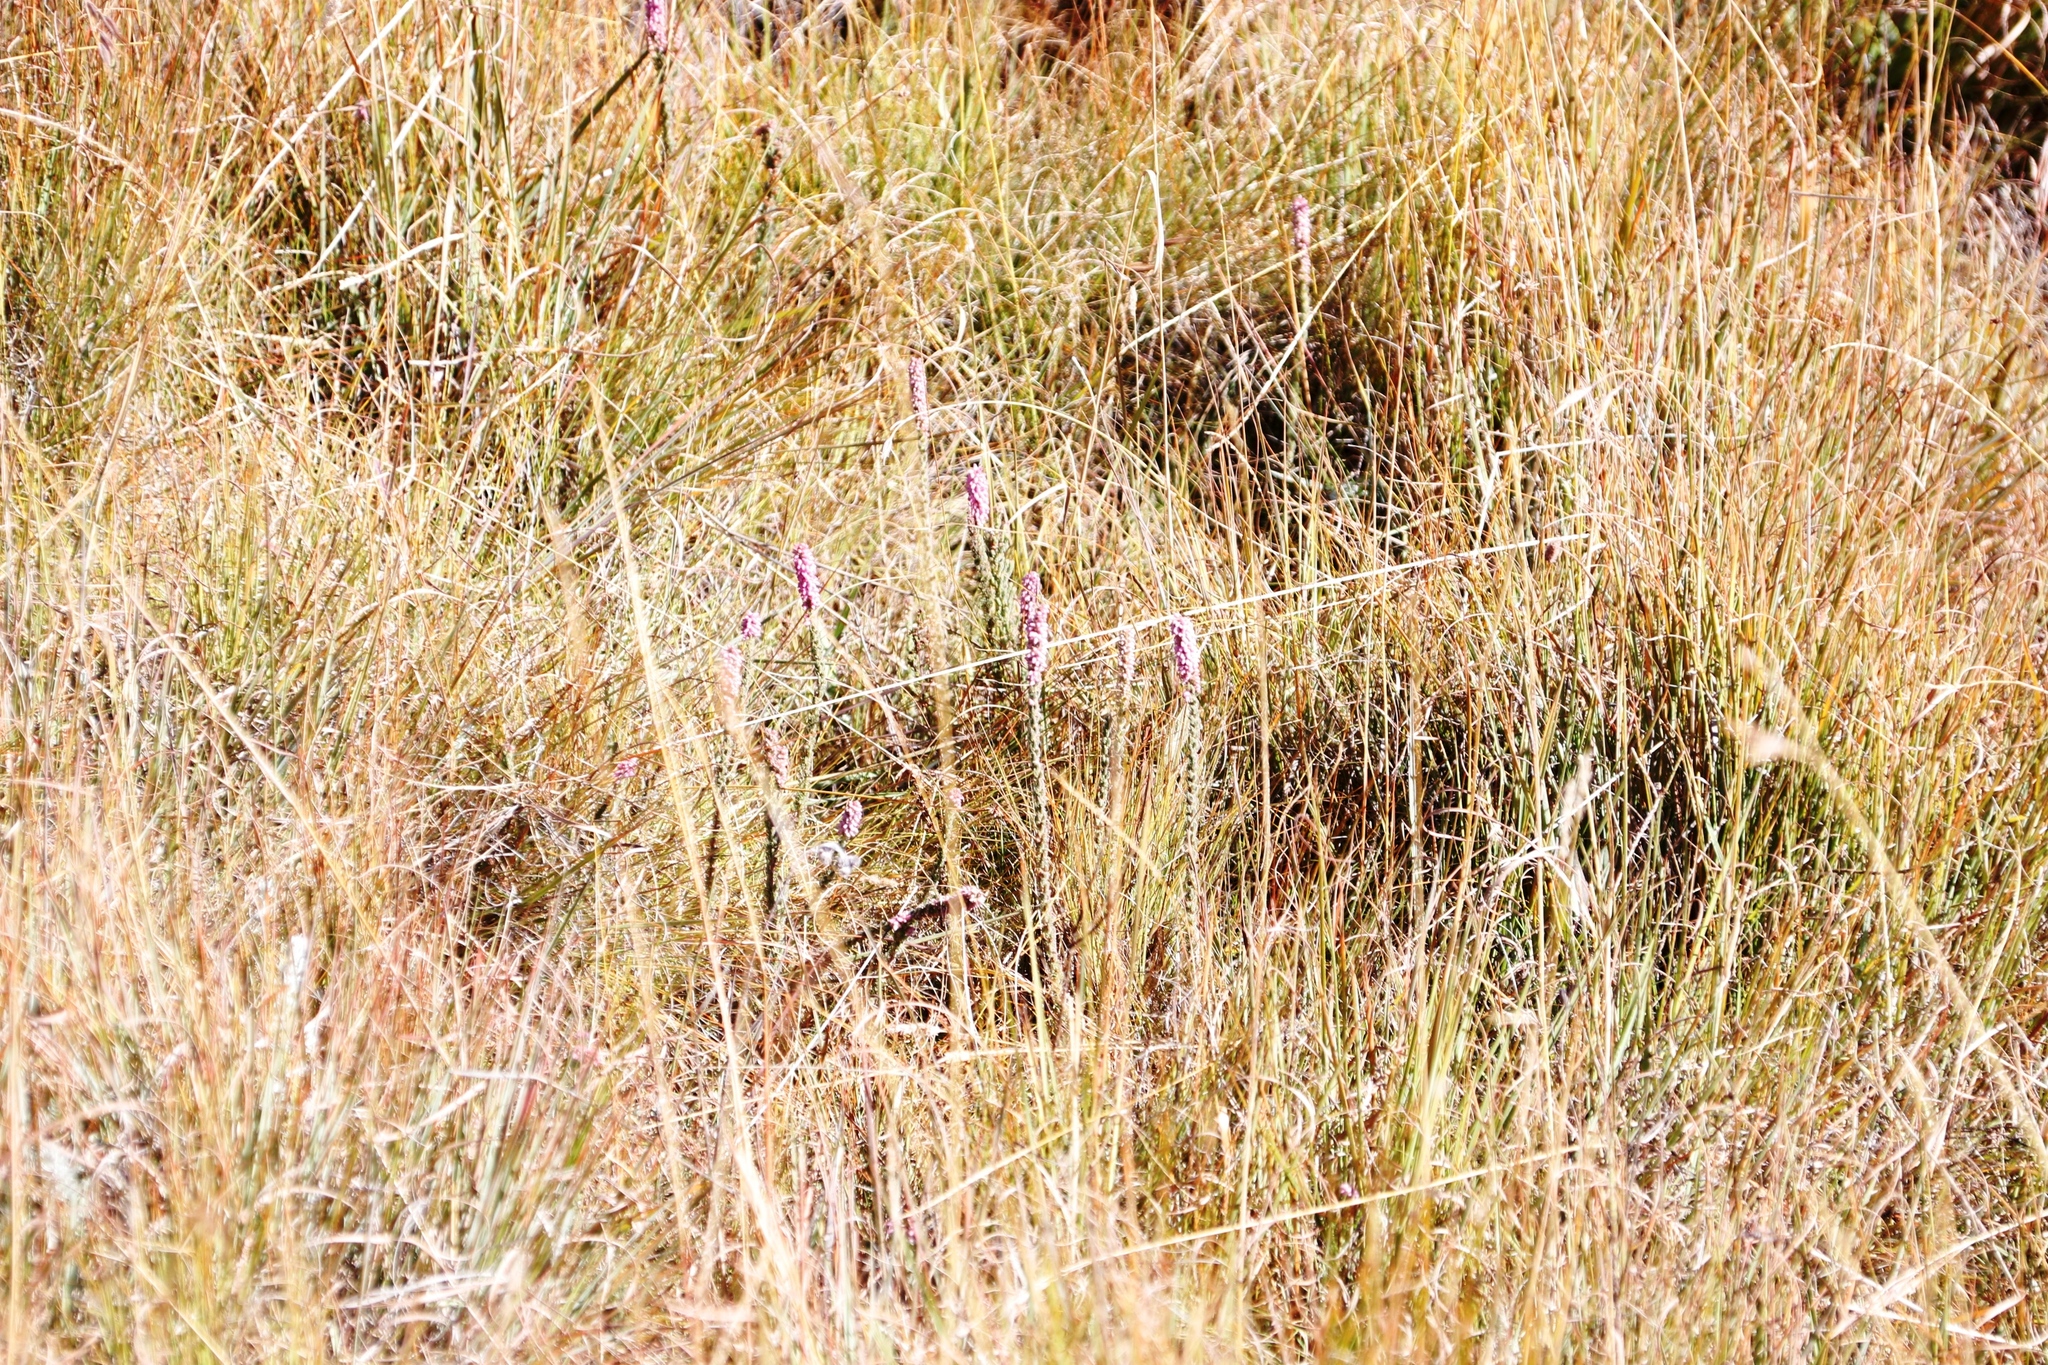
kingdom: Plantae
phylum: Tracheophyta
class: Magnoliopsida
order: Ericales
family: Ericaceae
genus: Erica
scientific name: Erica alopecurus
